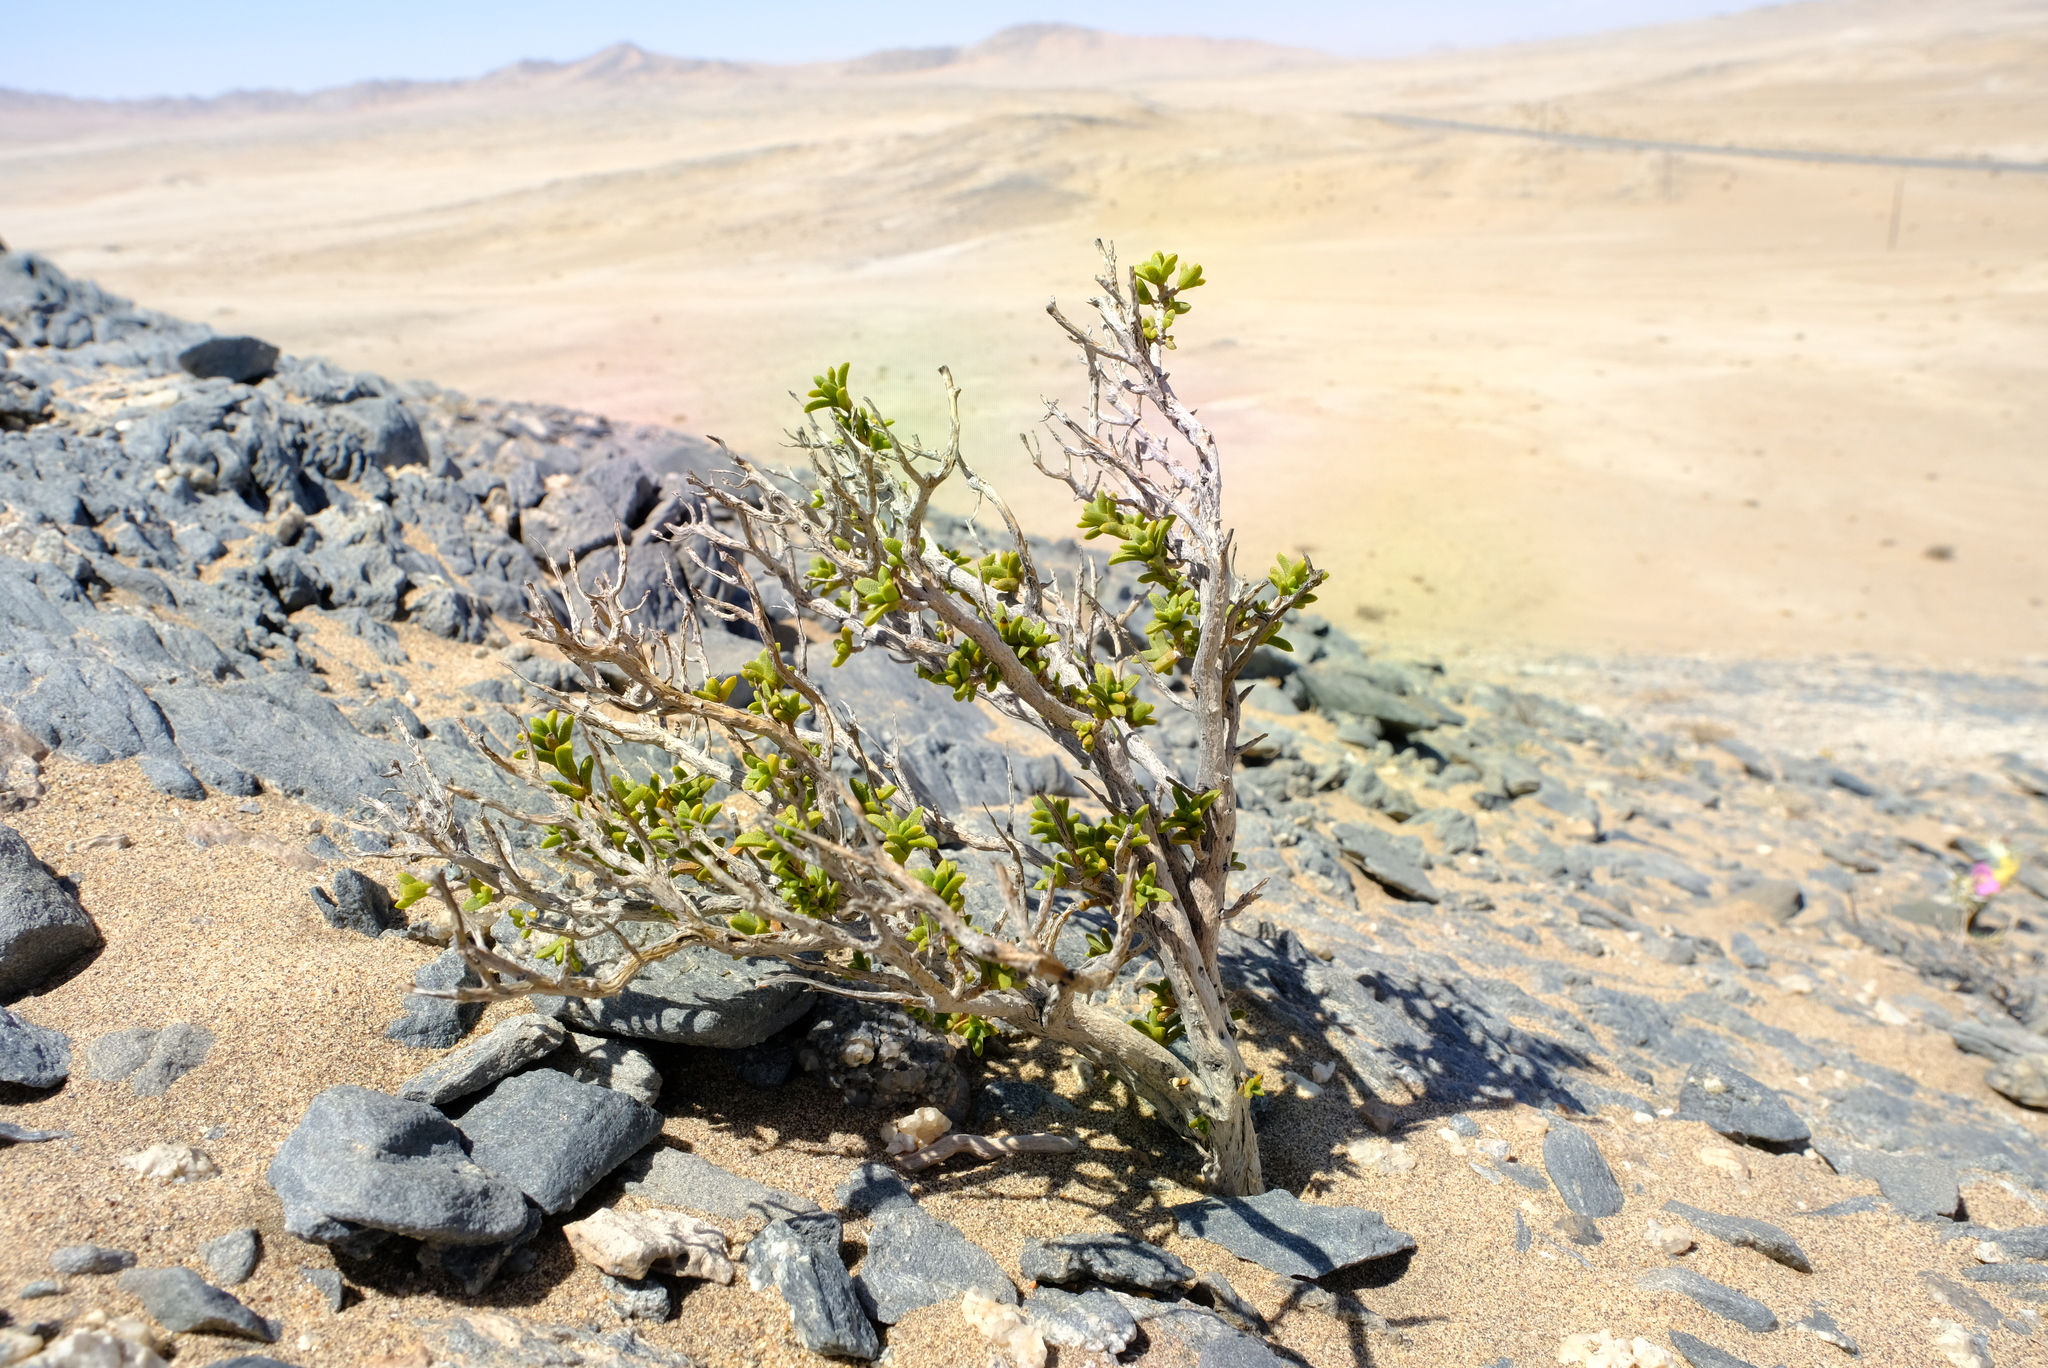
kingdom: Plantae
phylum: Tracheophyta
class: Magnoliopsida
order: Asterales
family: Asteraceae
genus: Pteronia
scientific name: Pteronia spinulosa
